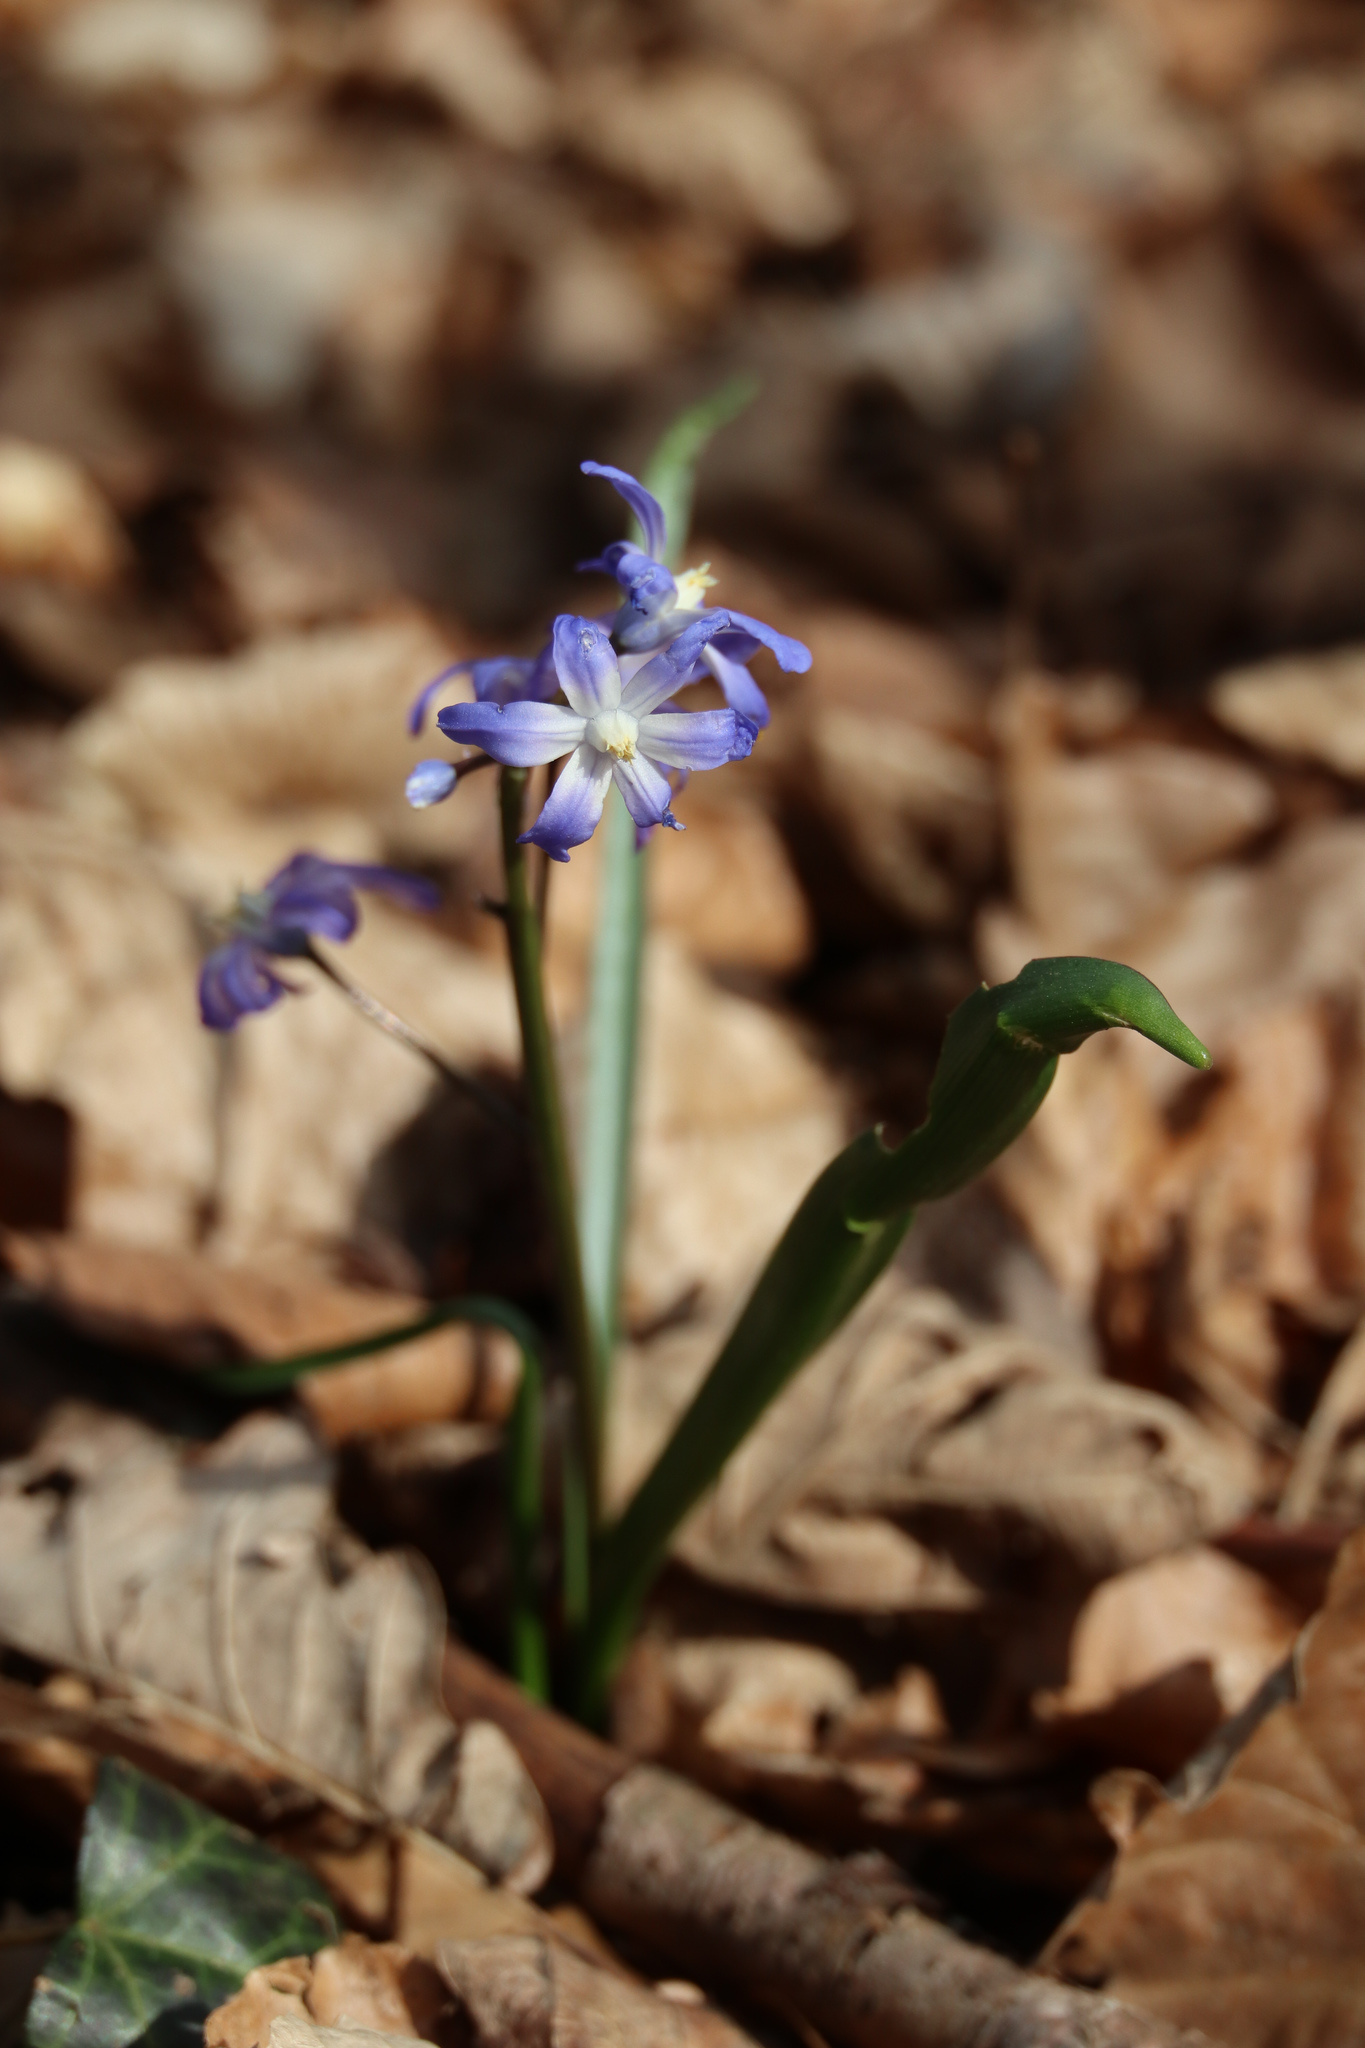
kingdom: Plantae
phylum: Tracheophyta
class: Liliopsida
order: Asparagales
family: Asparagaceae
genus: Scilla
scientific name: Scilla bifolia
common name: Alpine squill
